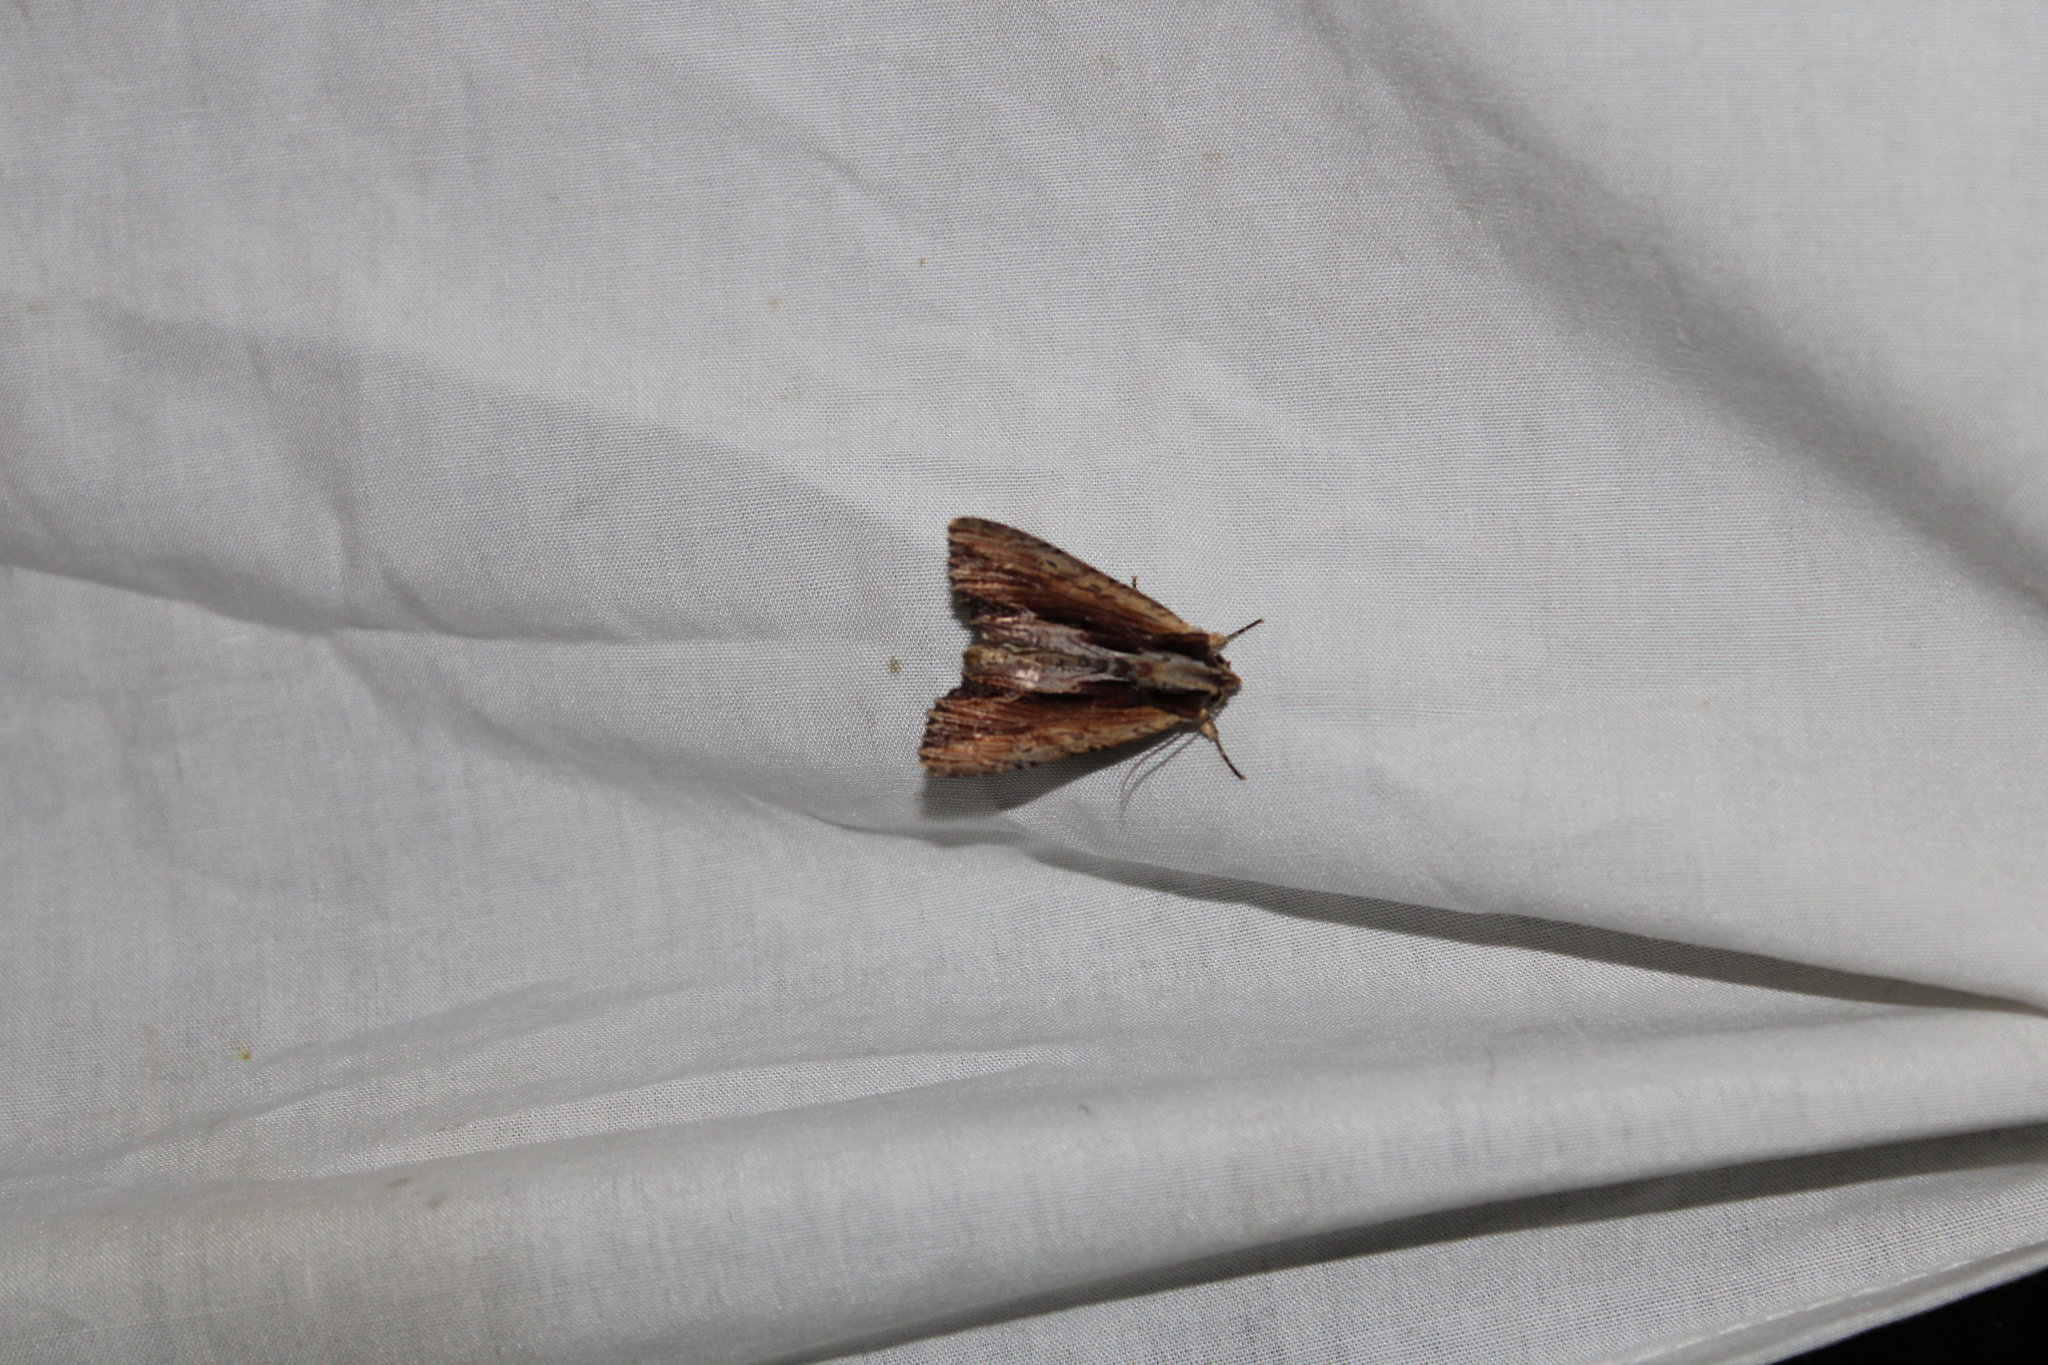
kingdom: Animalia
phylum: Arthropoda
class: Insecta
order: Lepidoptera
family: Noctuidae
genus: Apamea
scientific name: Apamea inebriata
